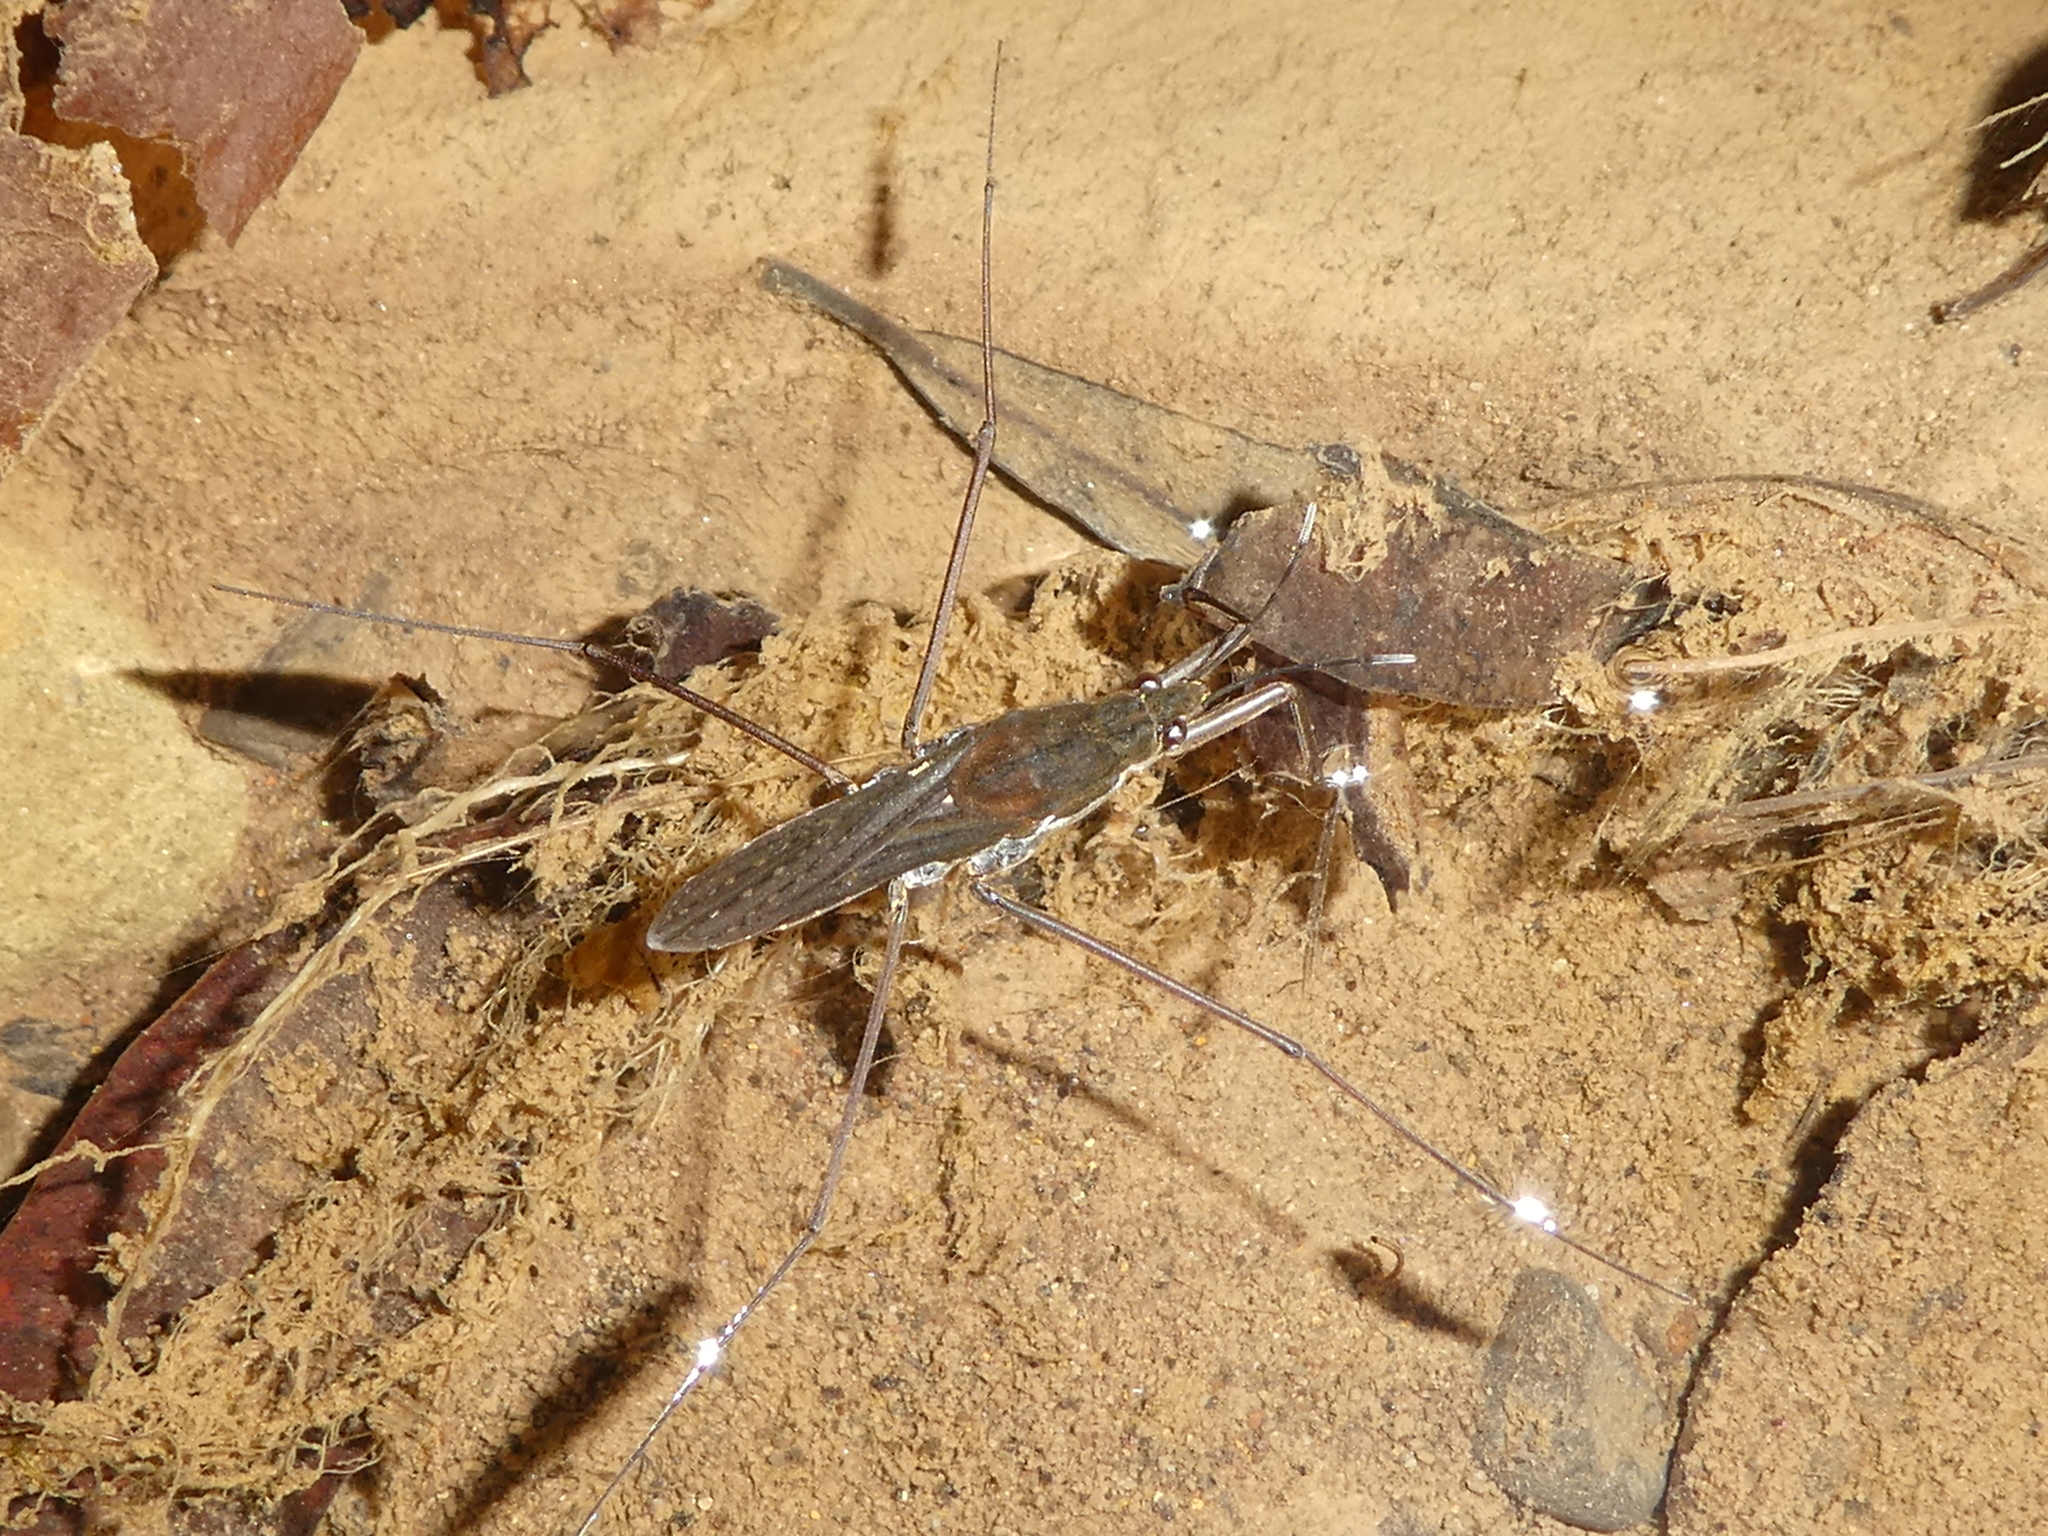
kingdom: Animalia
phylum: Arthropoda
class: Insecta
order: Hemiptera
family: Gerridae
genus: Aquarius
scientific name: Aquarius remigis
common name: Common water strider
